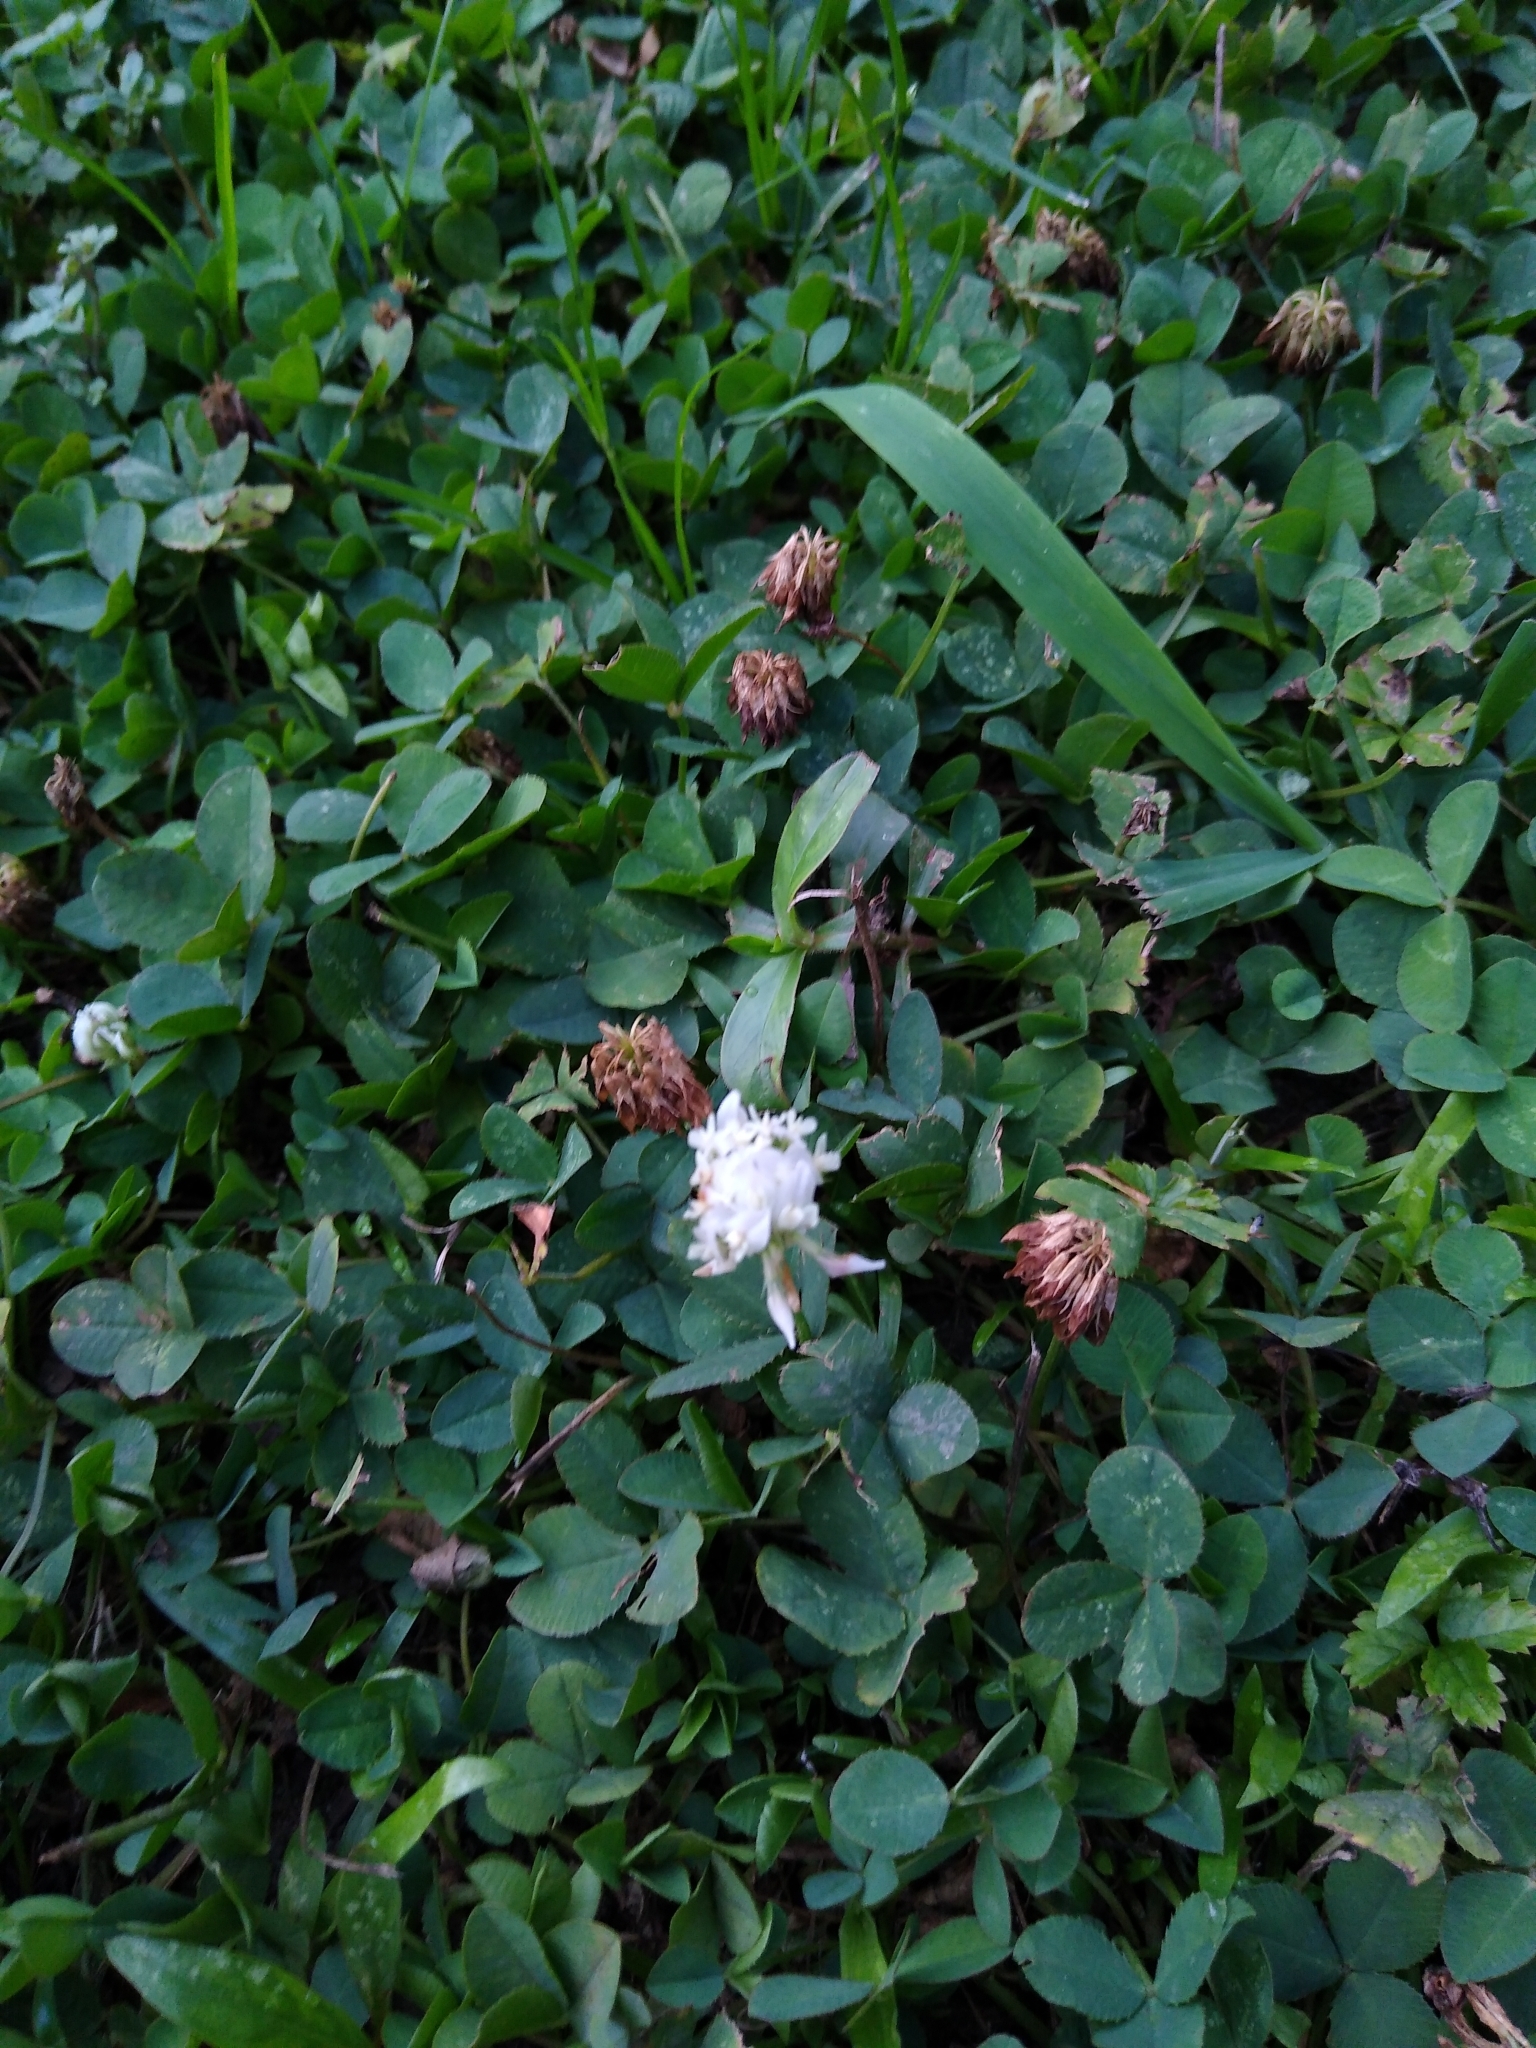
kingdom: Plantae
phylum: Tracheophyta
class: Magnoliopsida
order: Fabales
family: Fabaceae
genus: Trifolium
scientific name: Trifolium repens
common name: White clover
